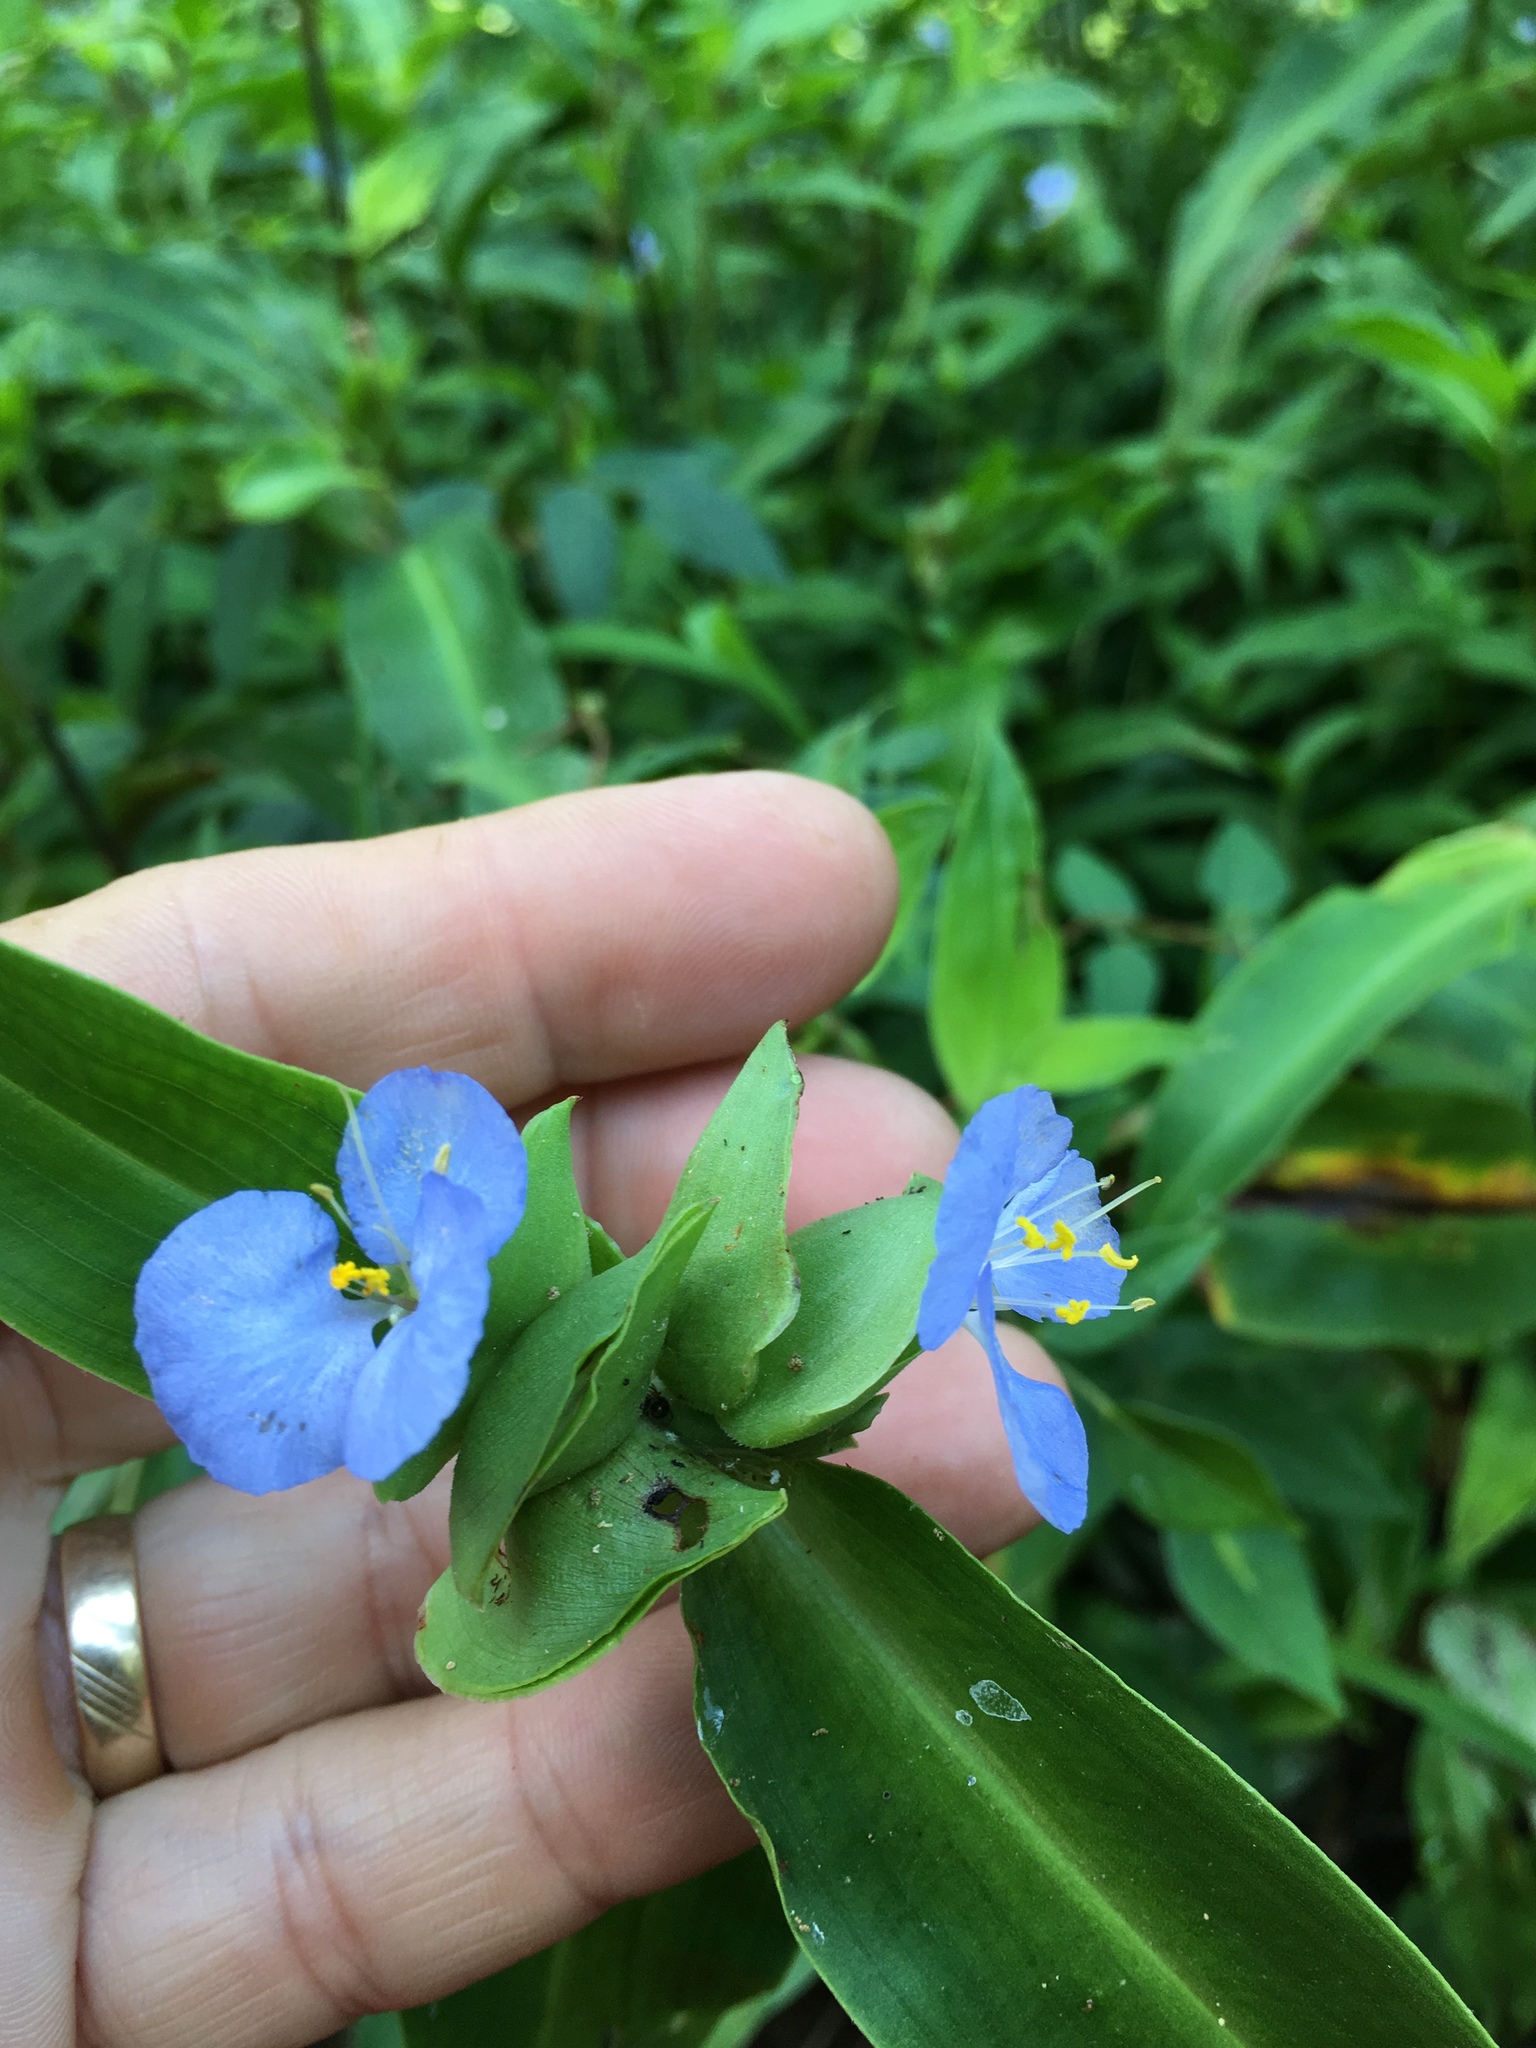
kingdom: Plantae
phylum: Tracheophyta
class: Liliopsida
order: Commelinales
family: Commelinaceae
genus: Commelina
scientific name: Commelina virginica
